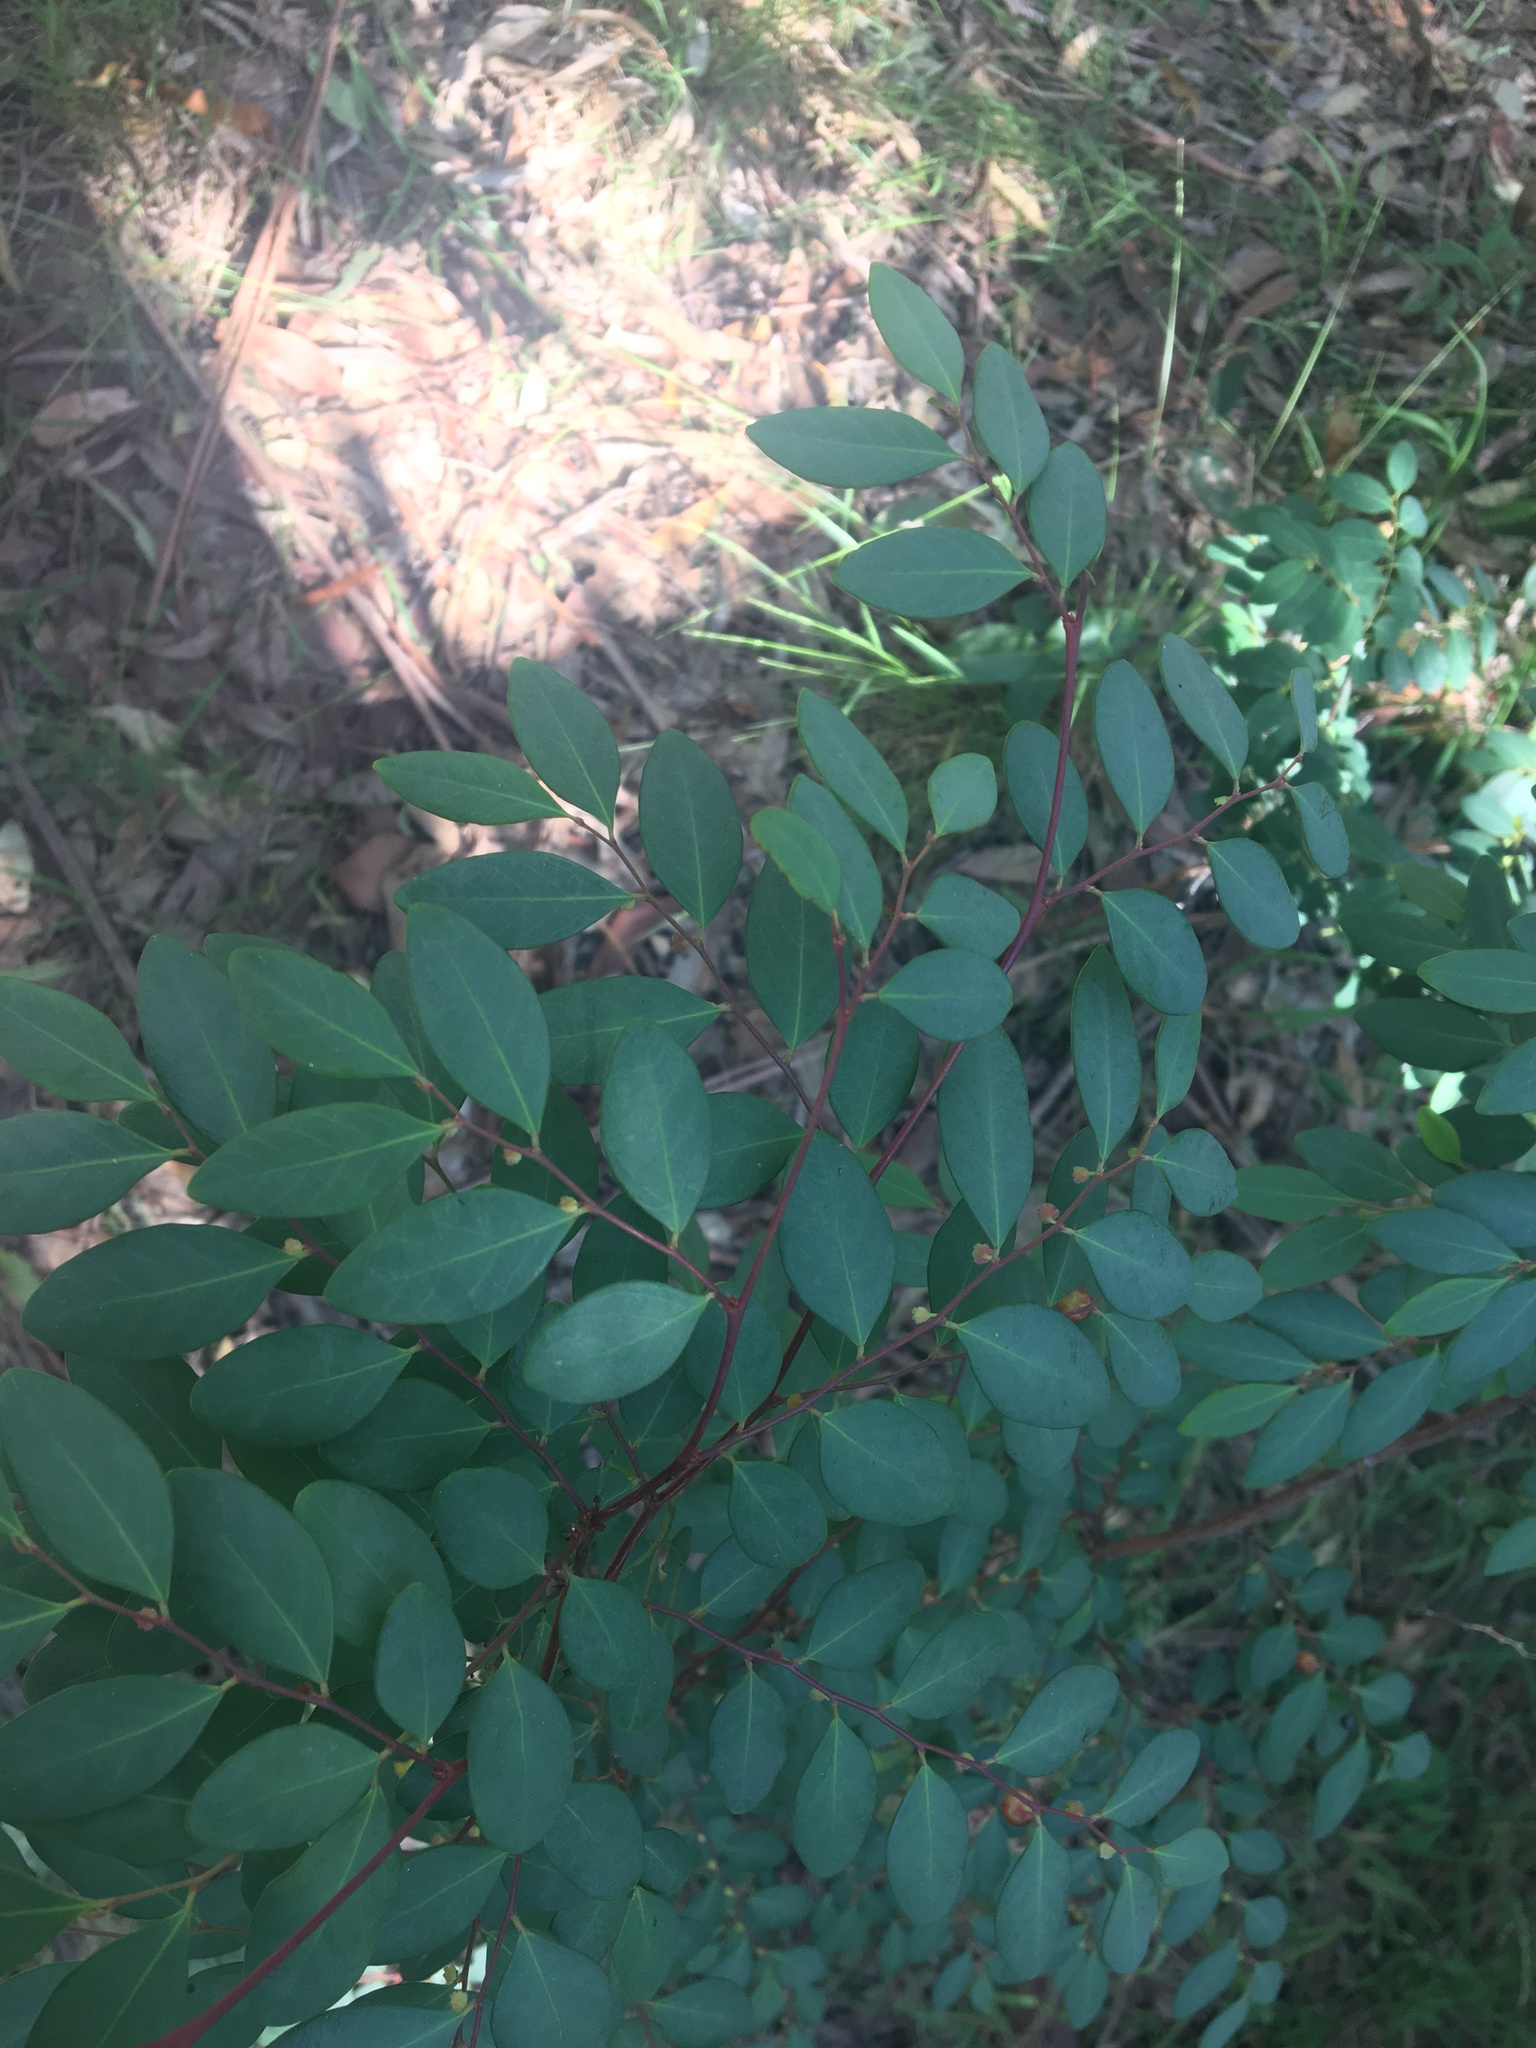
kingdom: Plantae
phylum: Tracheophyta
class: Magnoliopsida
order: Malpighiales
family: Phyllanthaceae
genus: Breynia
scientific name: Breynia oblongifolia
